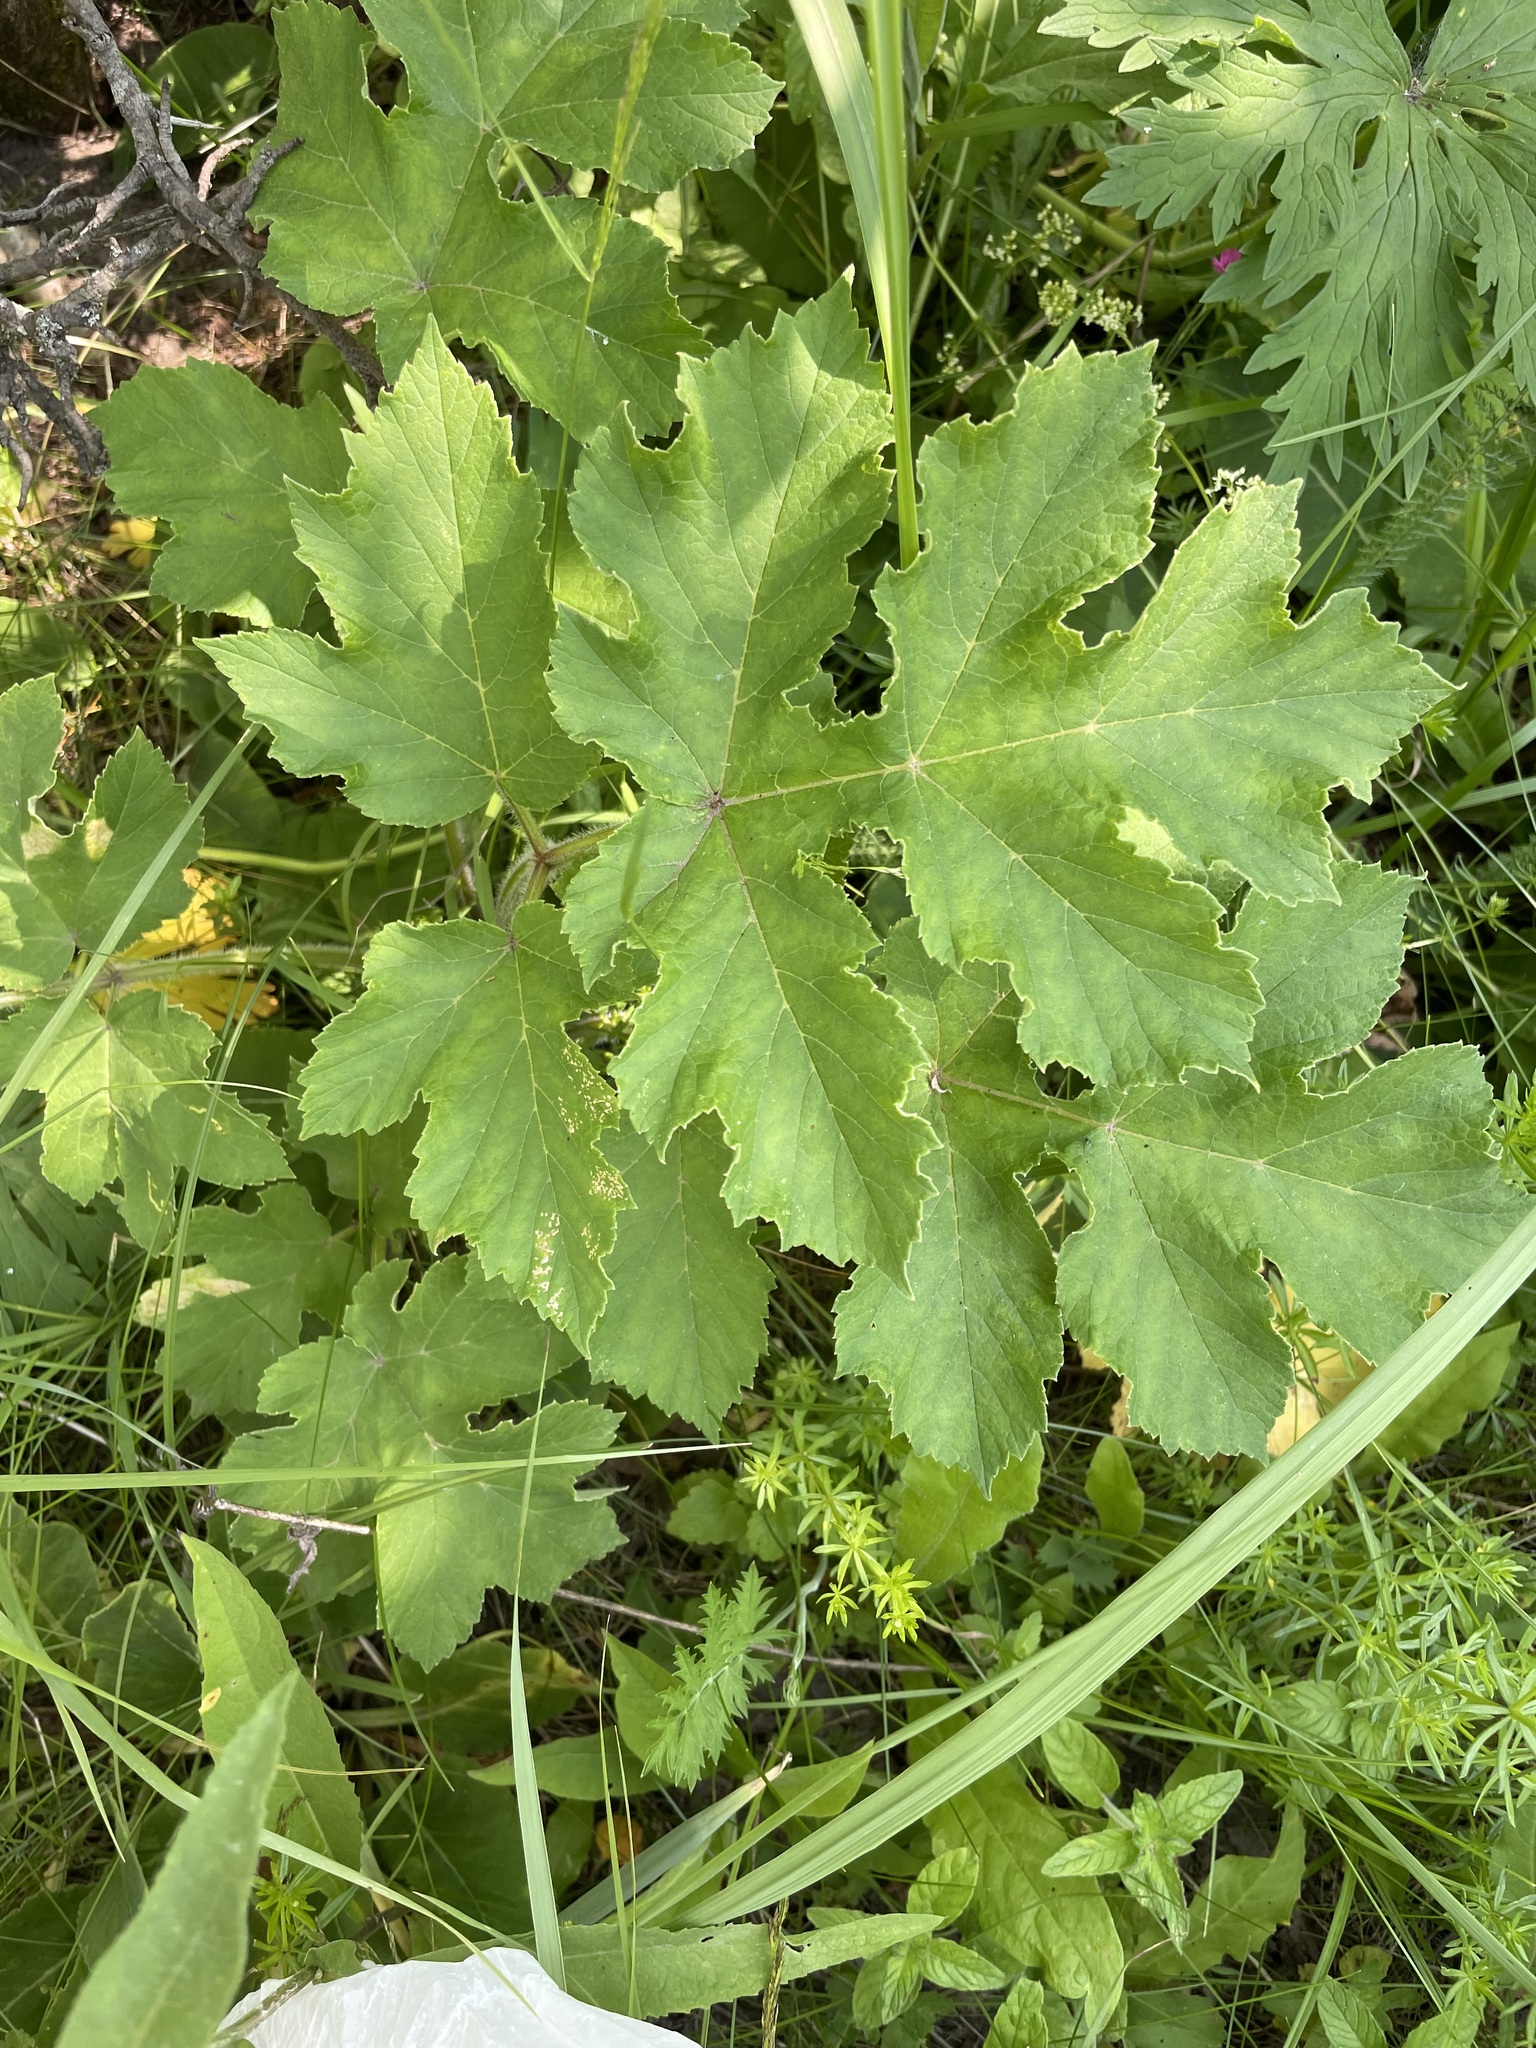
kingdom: Plantae
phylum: Tracheophyta
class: Magnoliopsida
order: Apiales
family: Apiaceae
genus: Heracleum
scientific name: Heracleum sphondylium
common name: Hogweed
